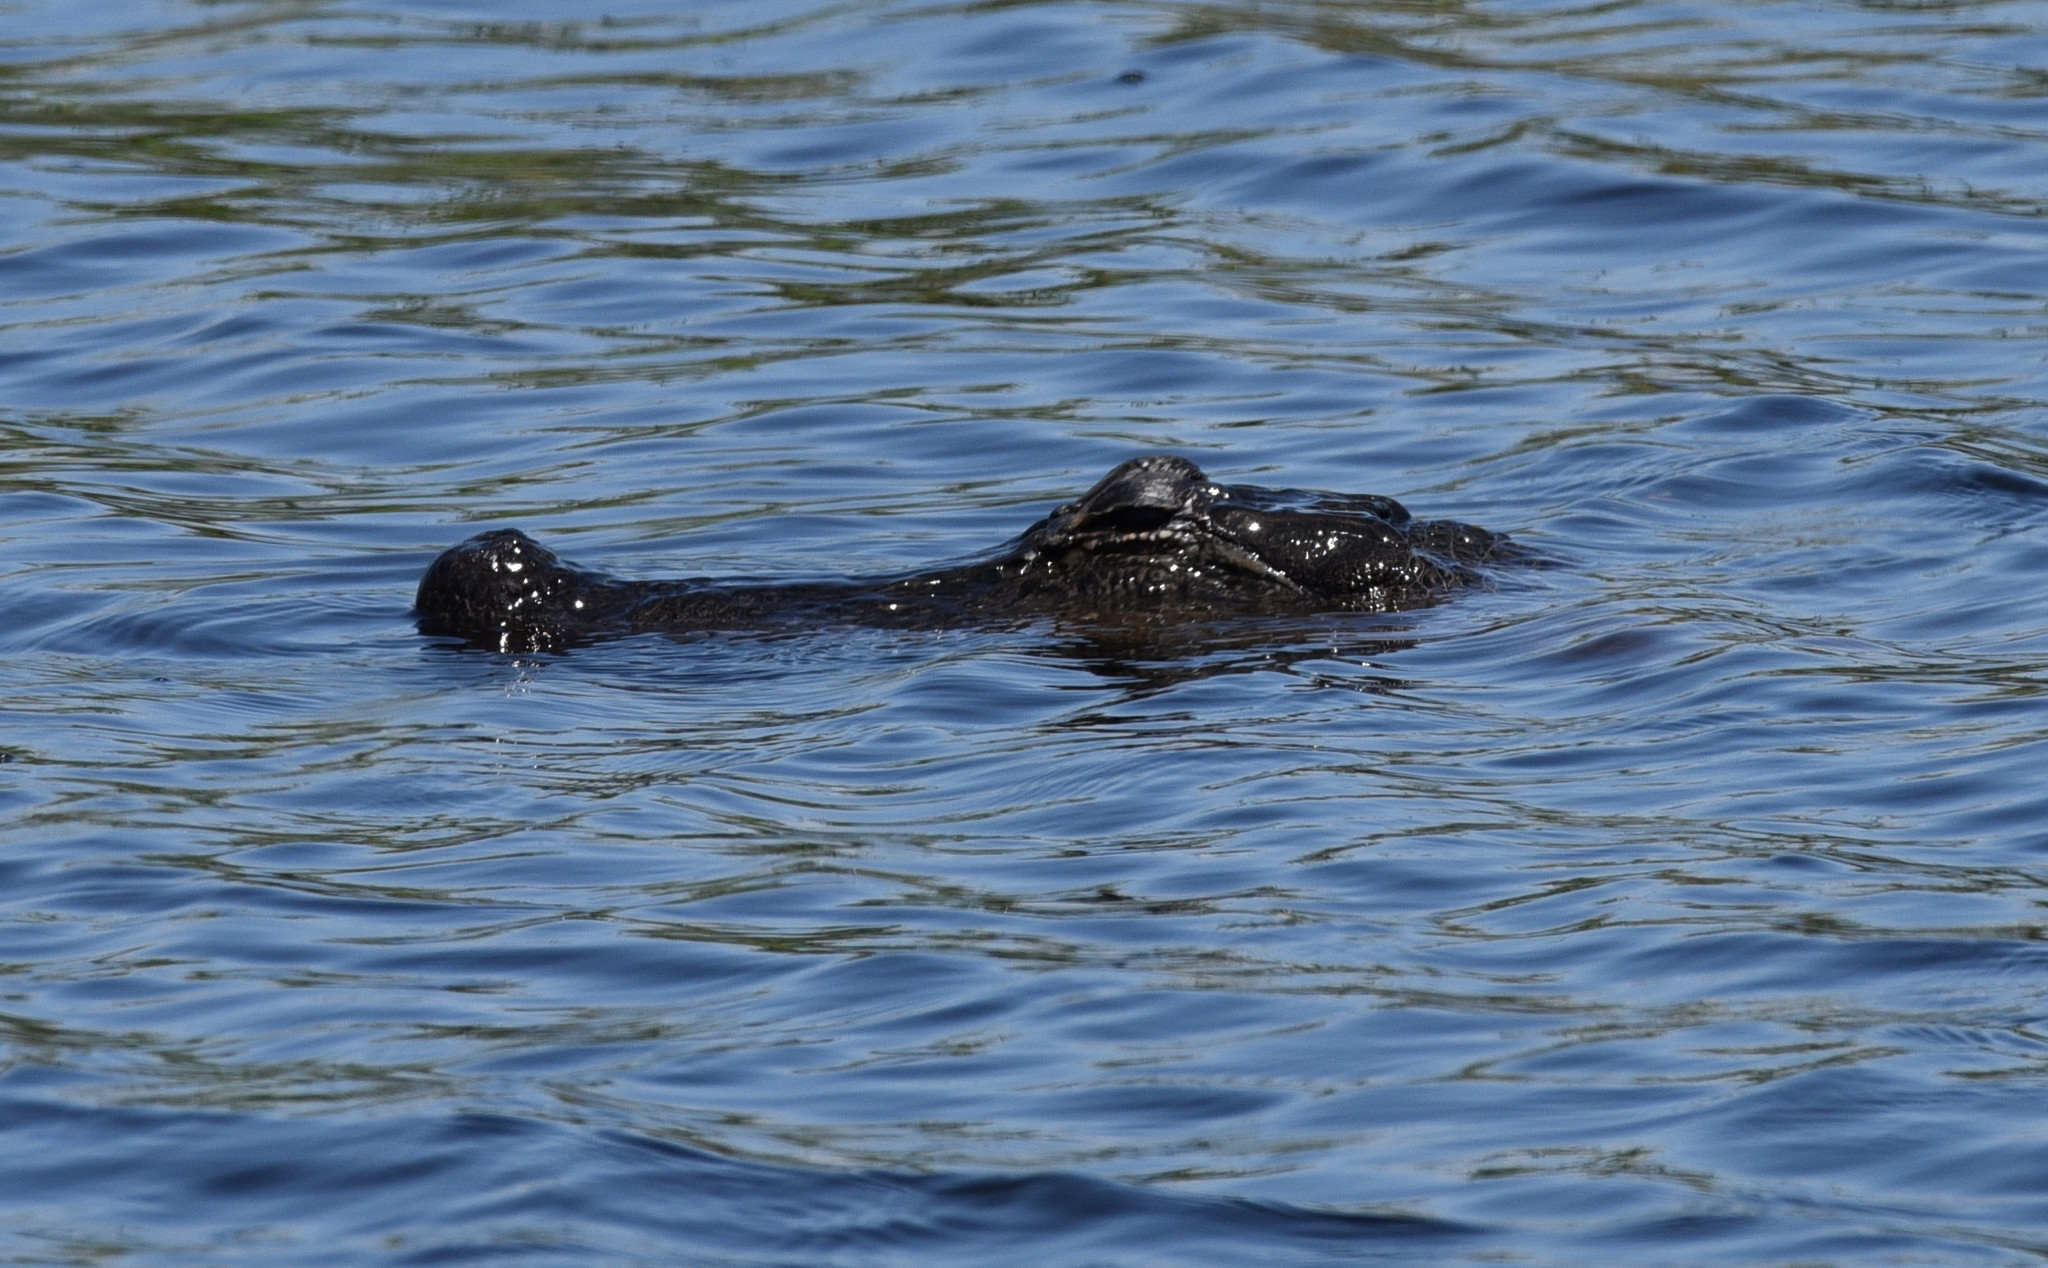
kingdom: Animalia
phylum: Chordata
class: Crocodylia
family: Alligatoridae
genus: Alligator
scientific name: Alligator mississippiensis
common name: American alligator
